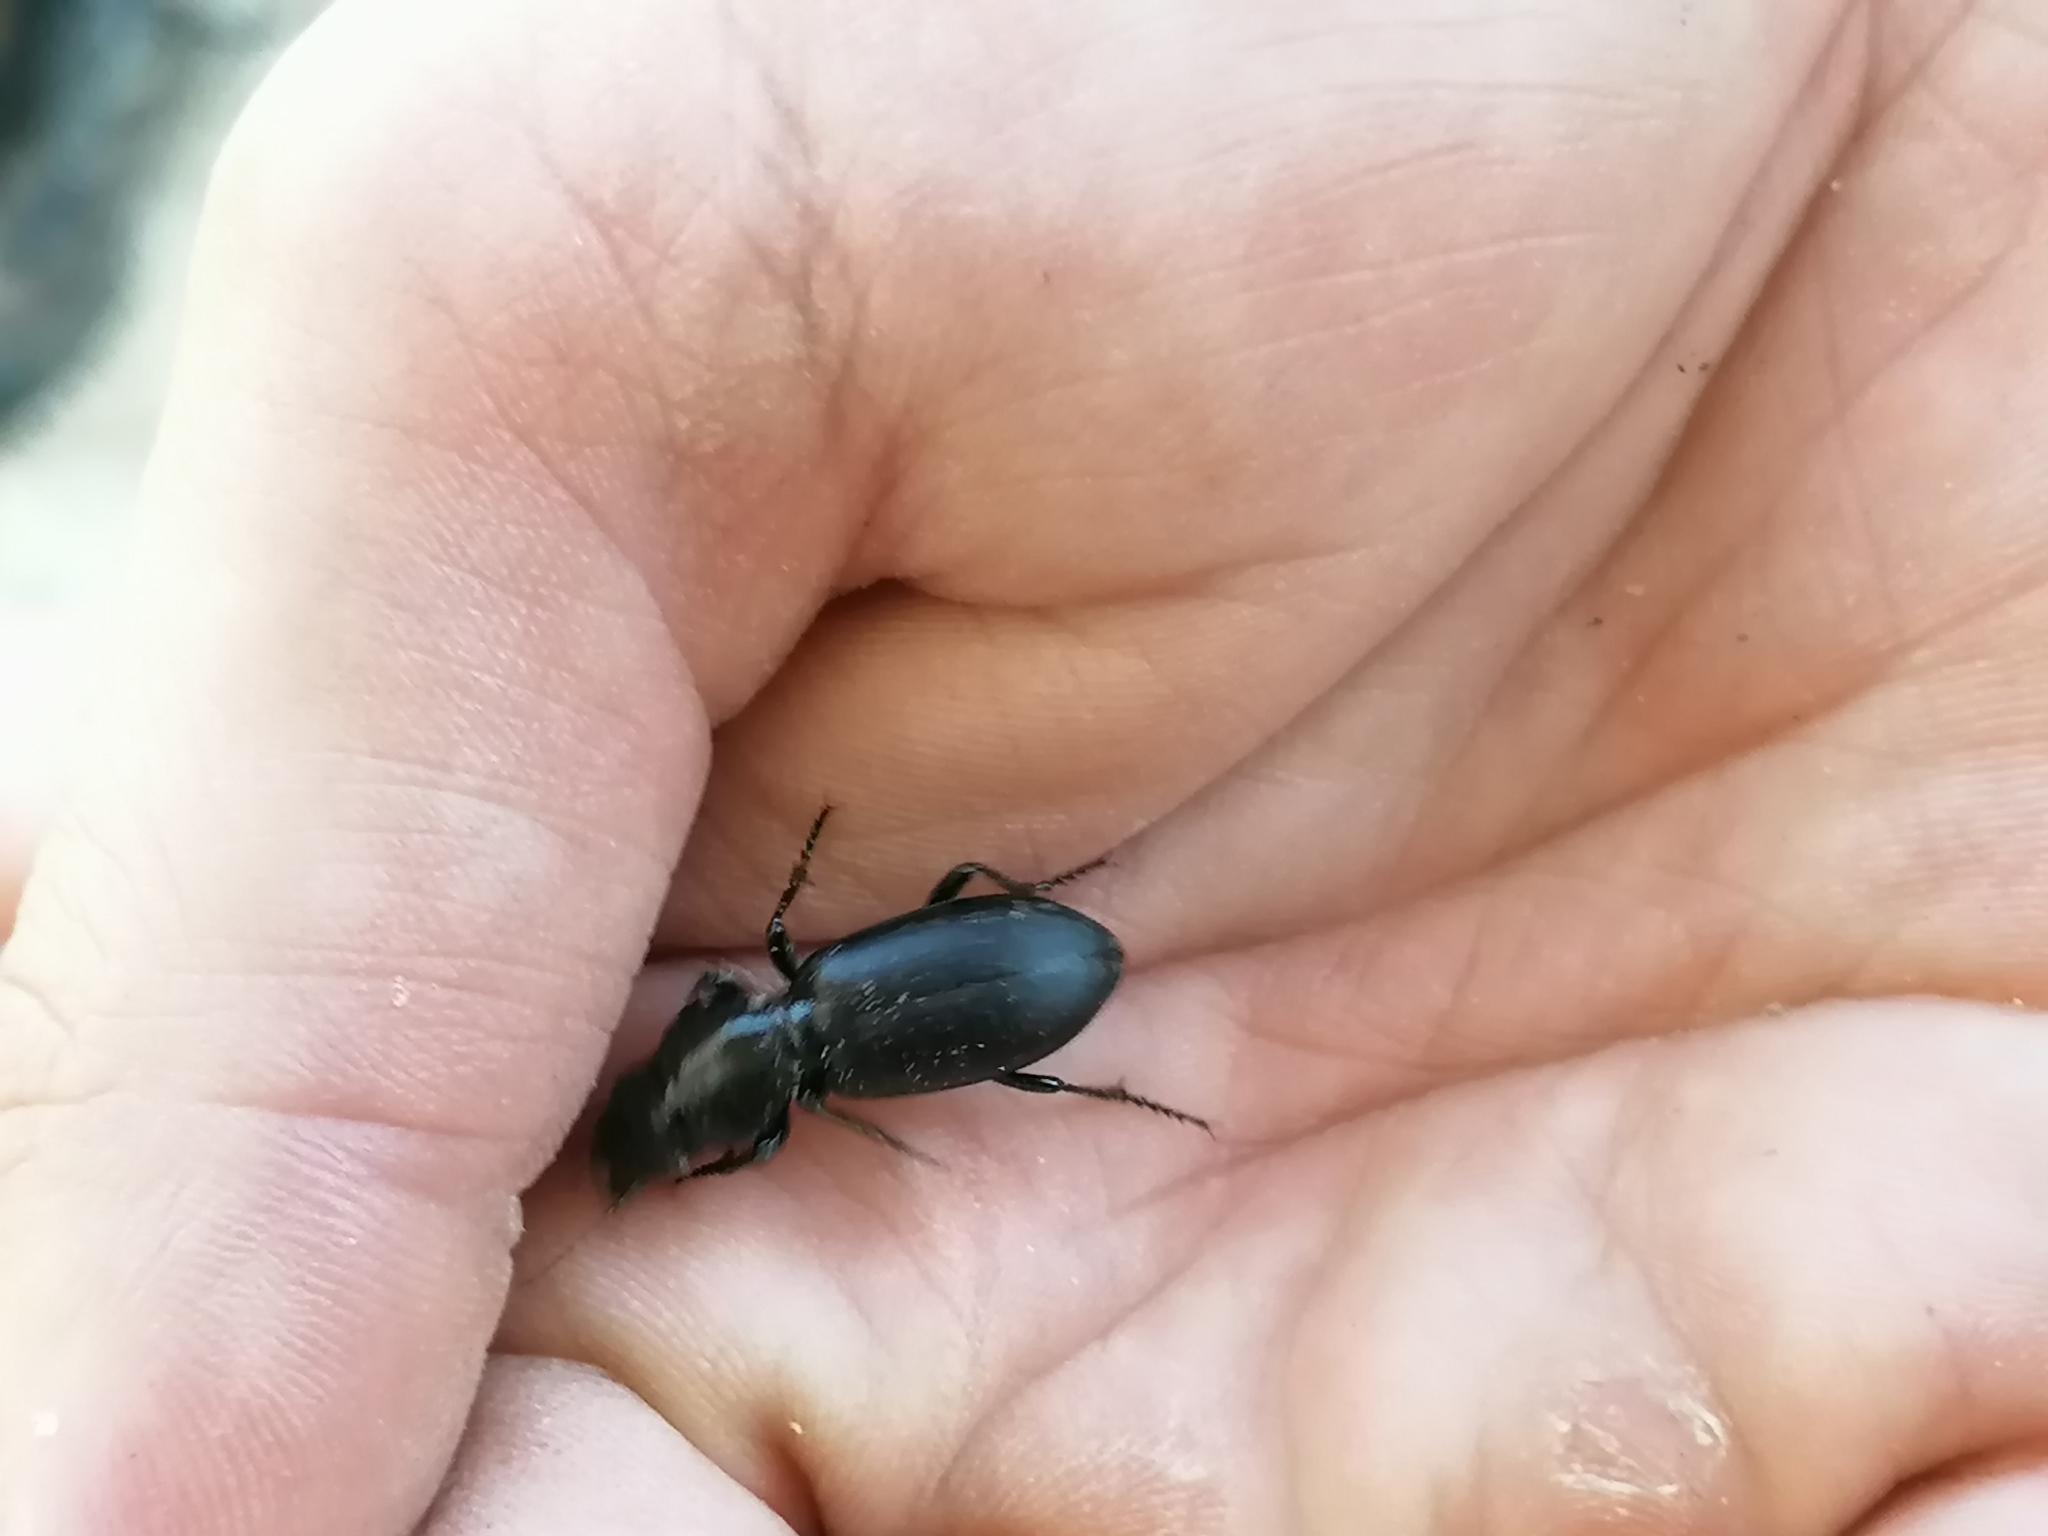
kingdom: Animalia
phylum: Arthropoda
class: Insecta
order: Coleoptera
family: Carabidae
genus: Broscus
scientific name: Broscus cephalotes
